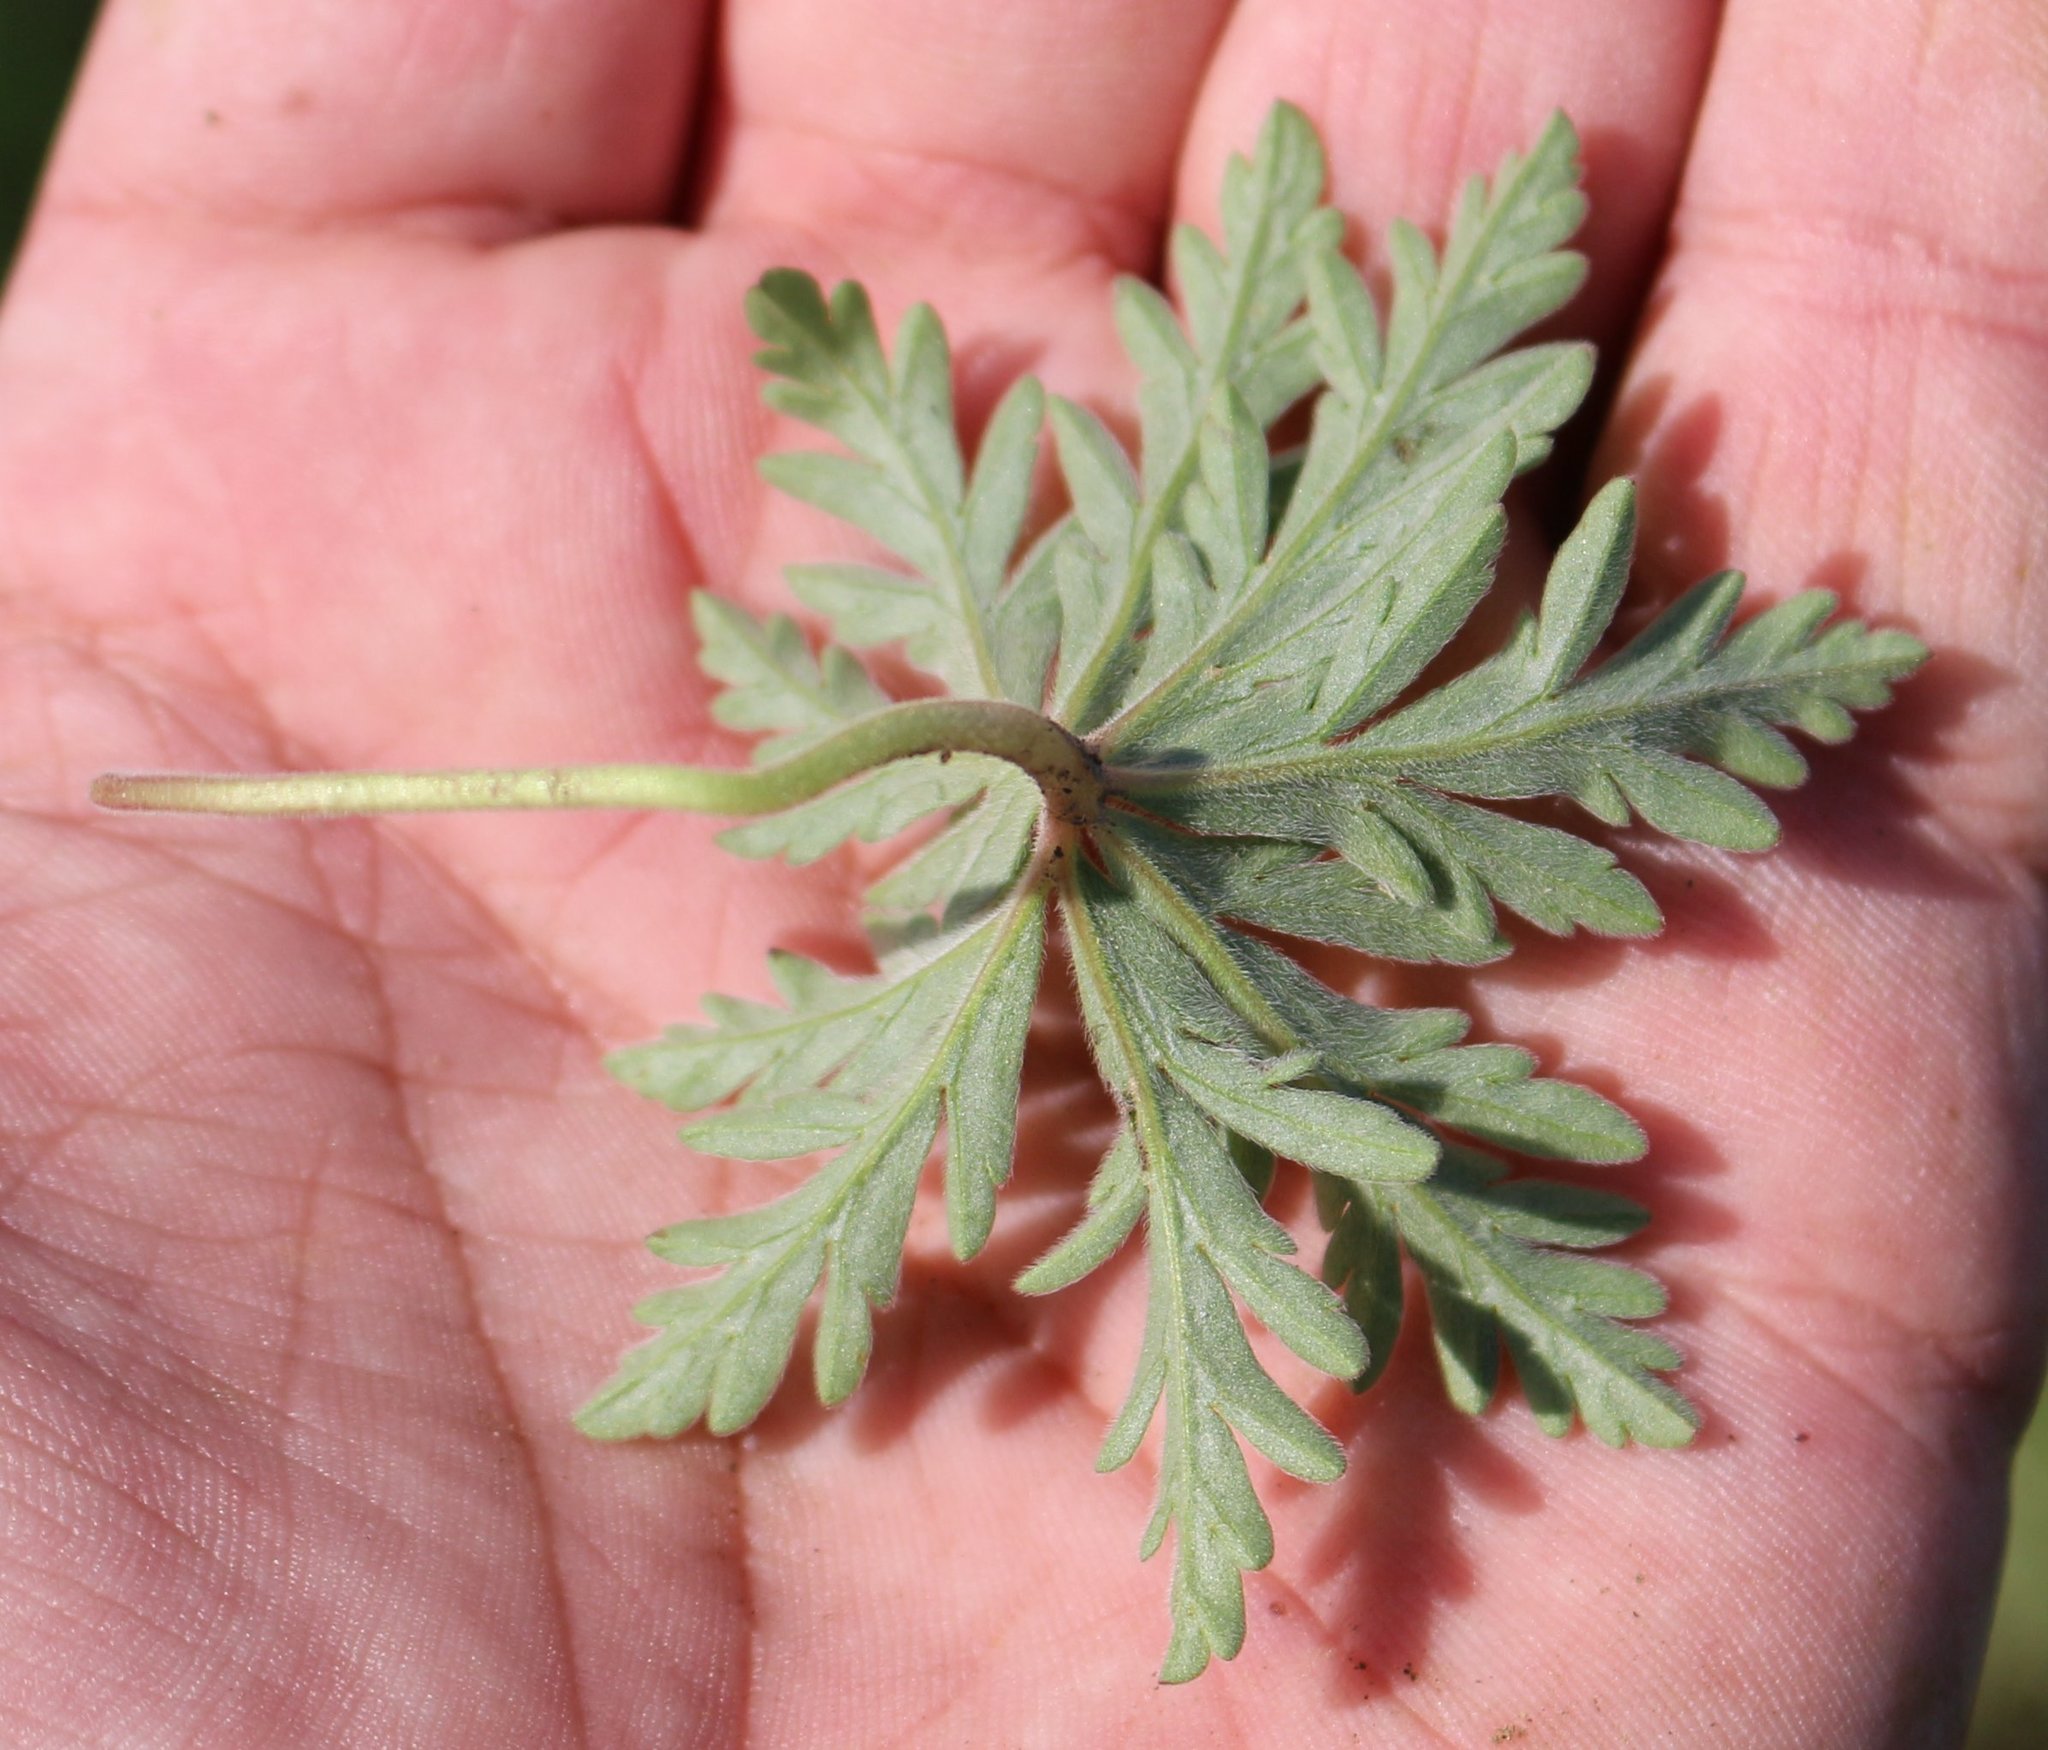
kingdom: Plantae
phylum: Tracheophyta
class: Magnoliopsida
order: Geraniales
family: Geraniaceae
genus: Geranium
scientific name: Geranium tuberosum
